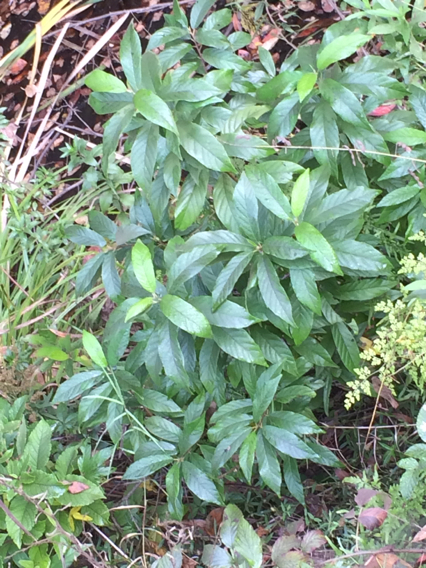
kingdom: Plantae
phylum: Tracheophyta
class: Magnoliopsida
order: Rosales
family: Rhamnaceae
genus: Frangula
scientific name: Frangula caroliniana
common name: Carolina buckthorn
